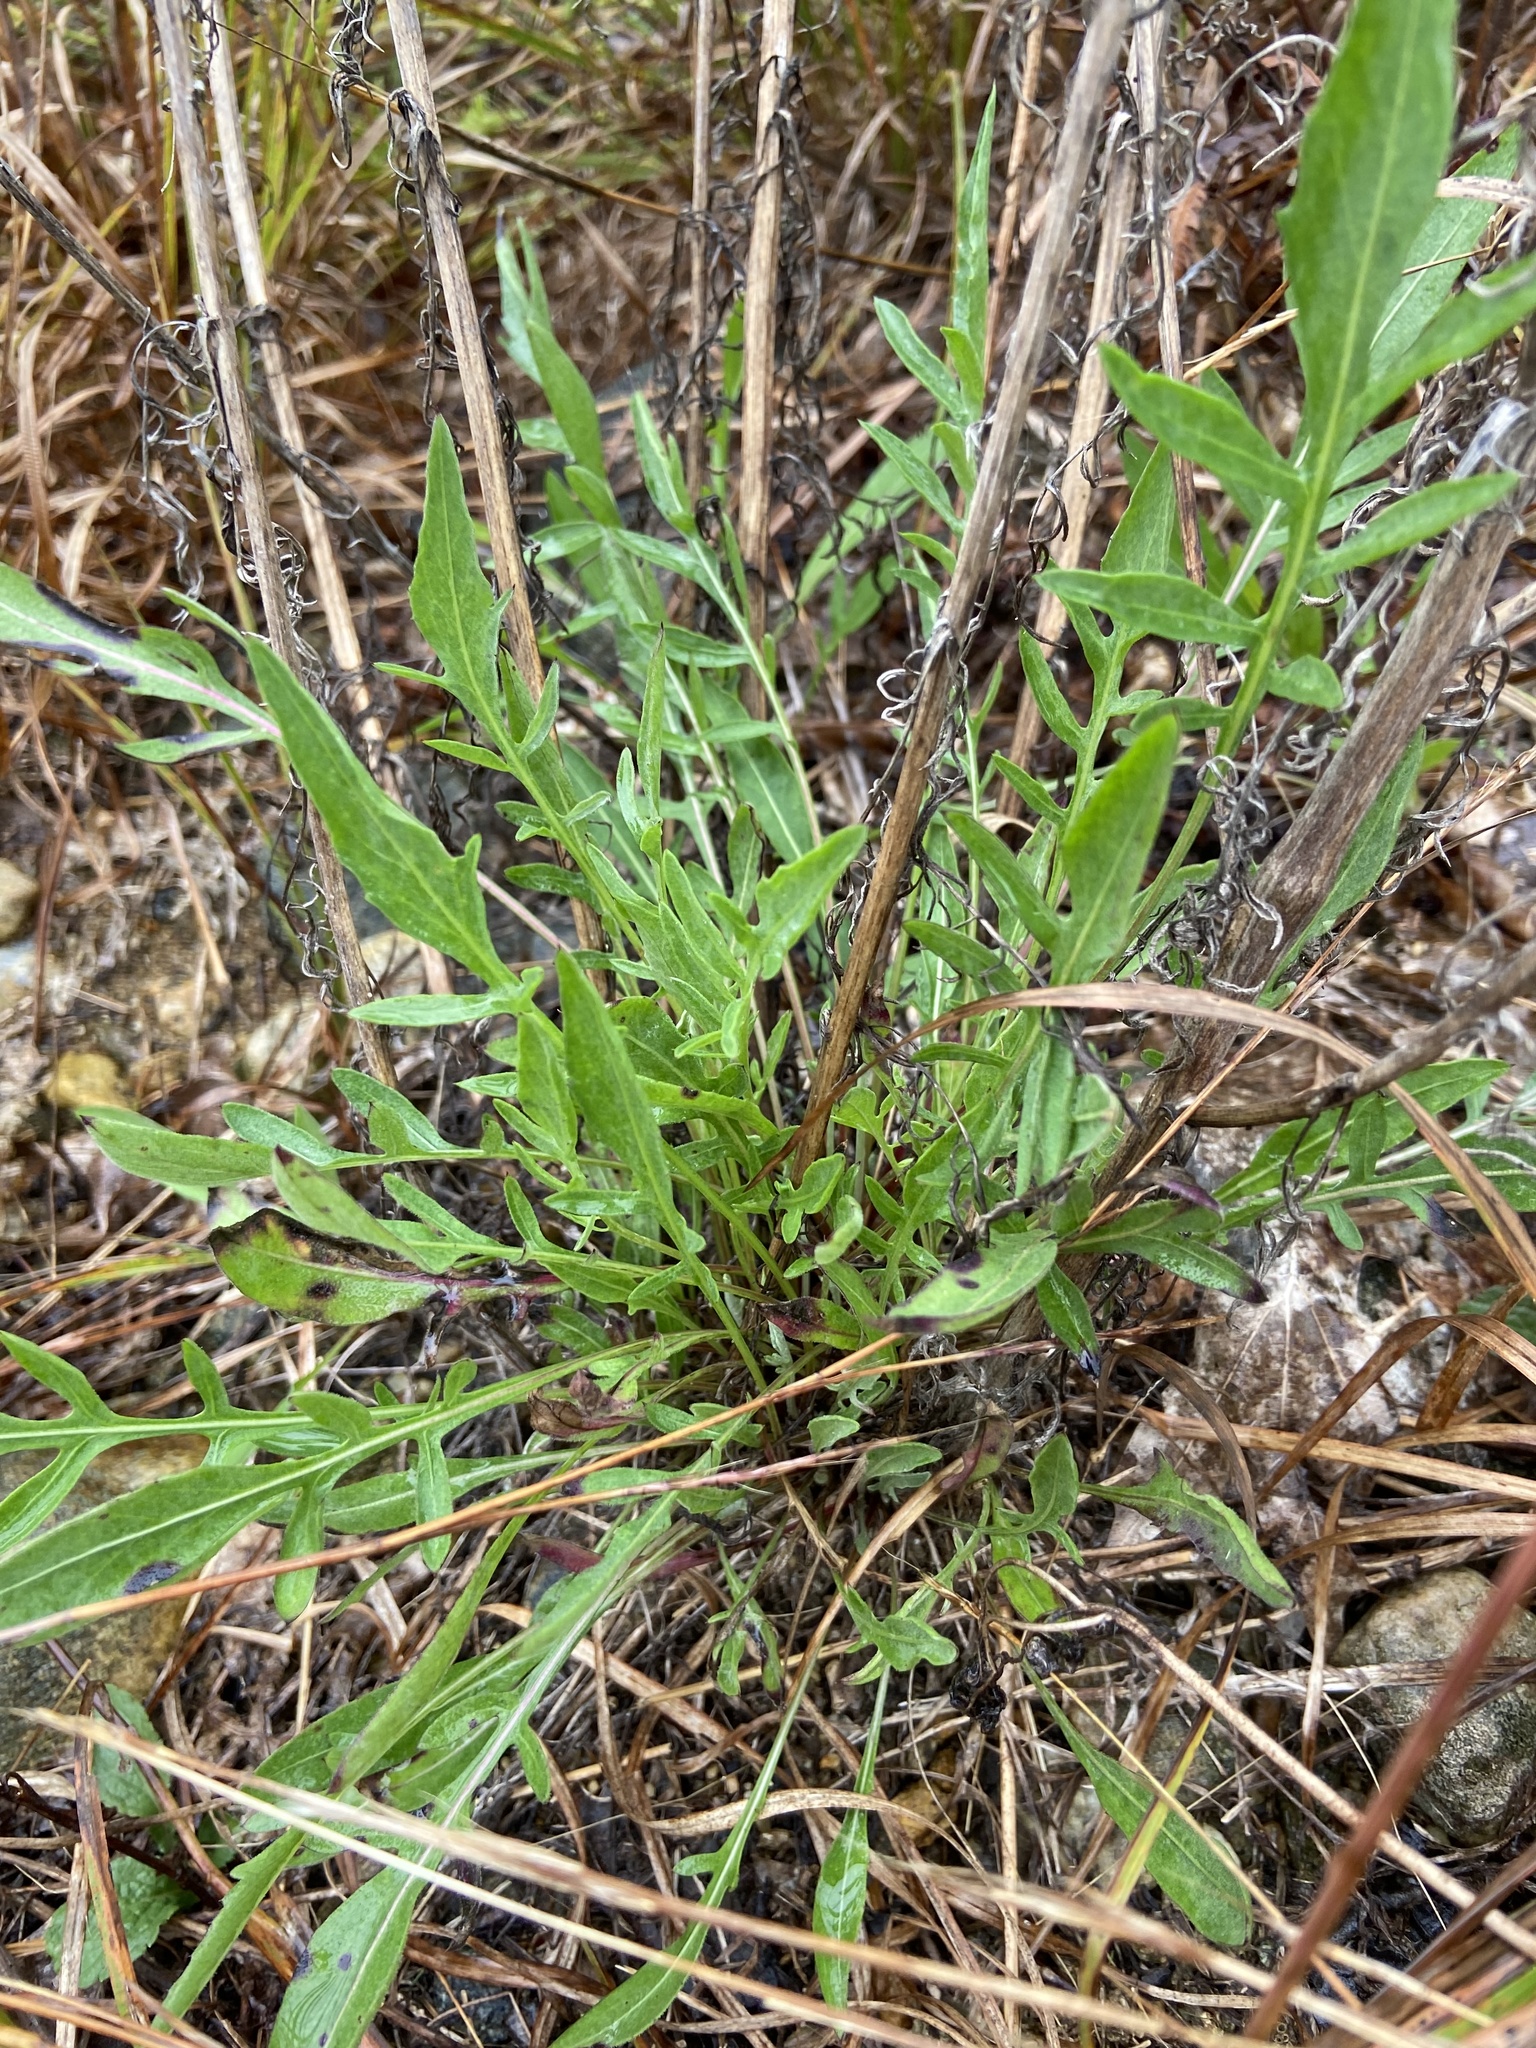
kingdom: Plantae
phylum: Tracheophyta
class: Magnoliopsida
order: Asterales
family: Asteraceae
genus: Centaurea
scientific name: Centaurea stoebe
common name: Spotted knapweed
